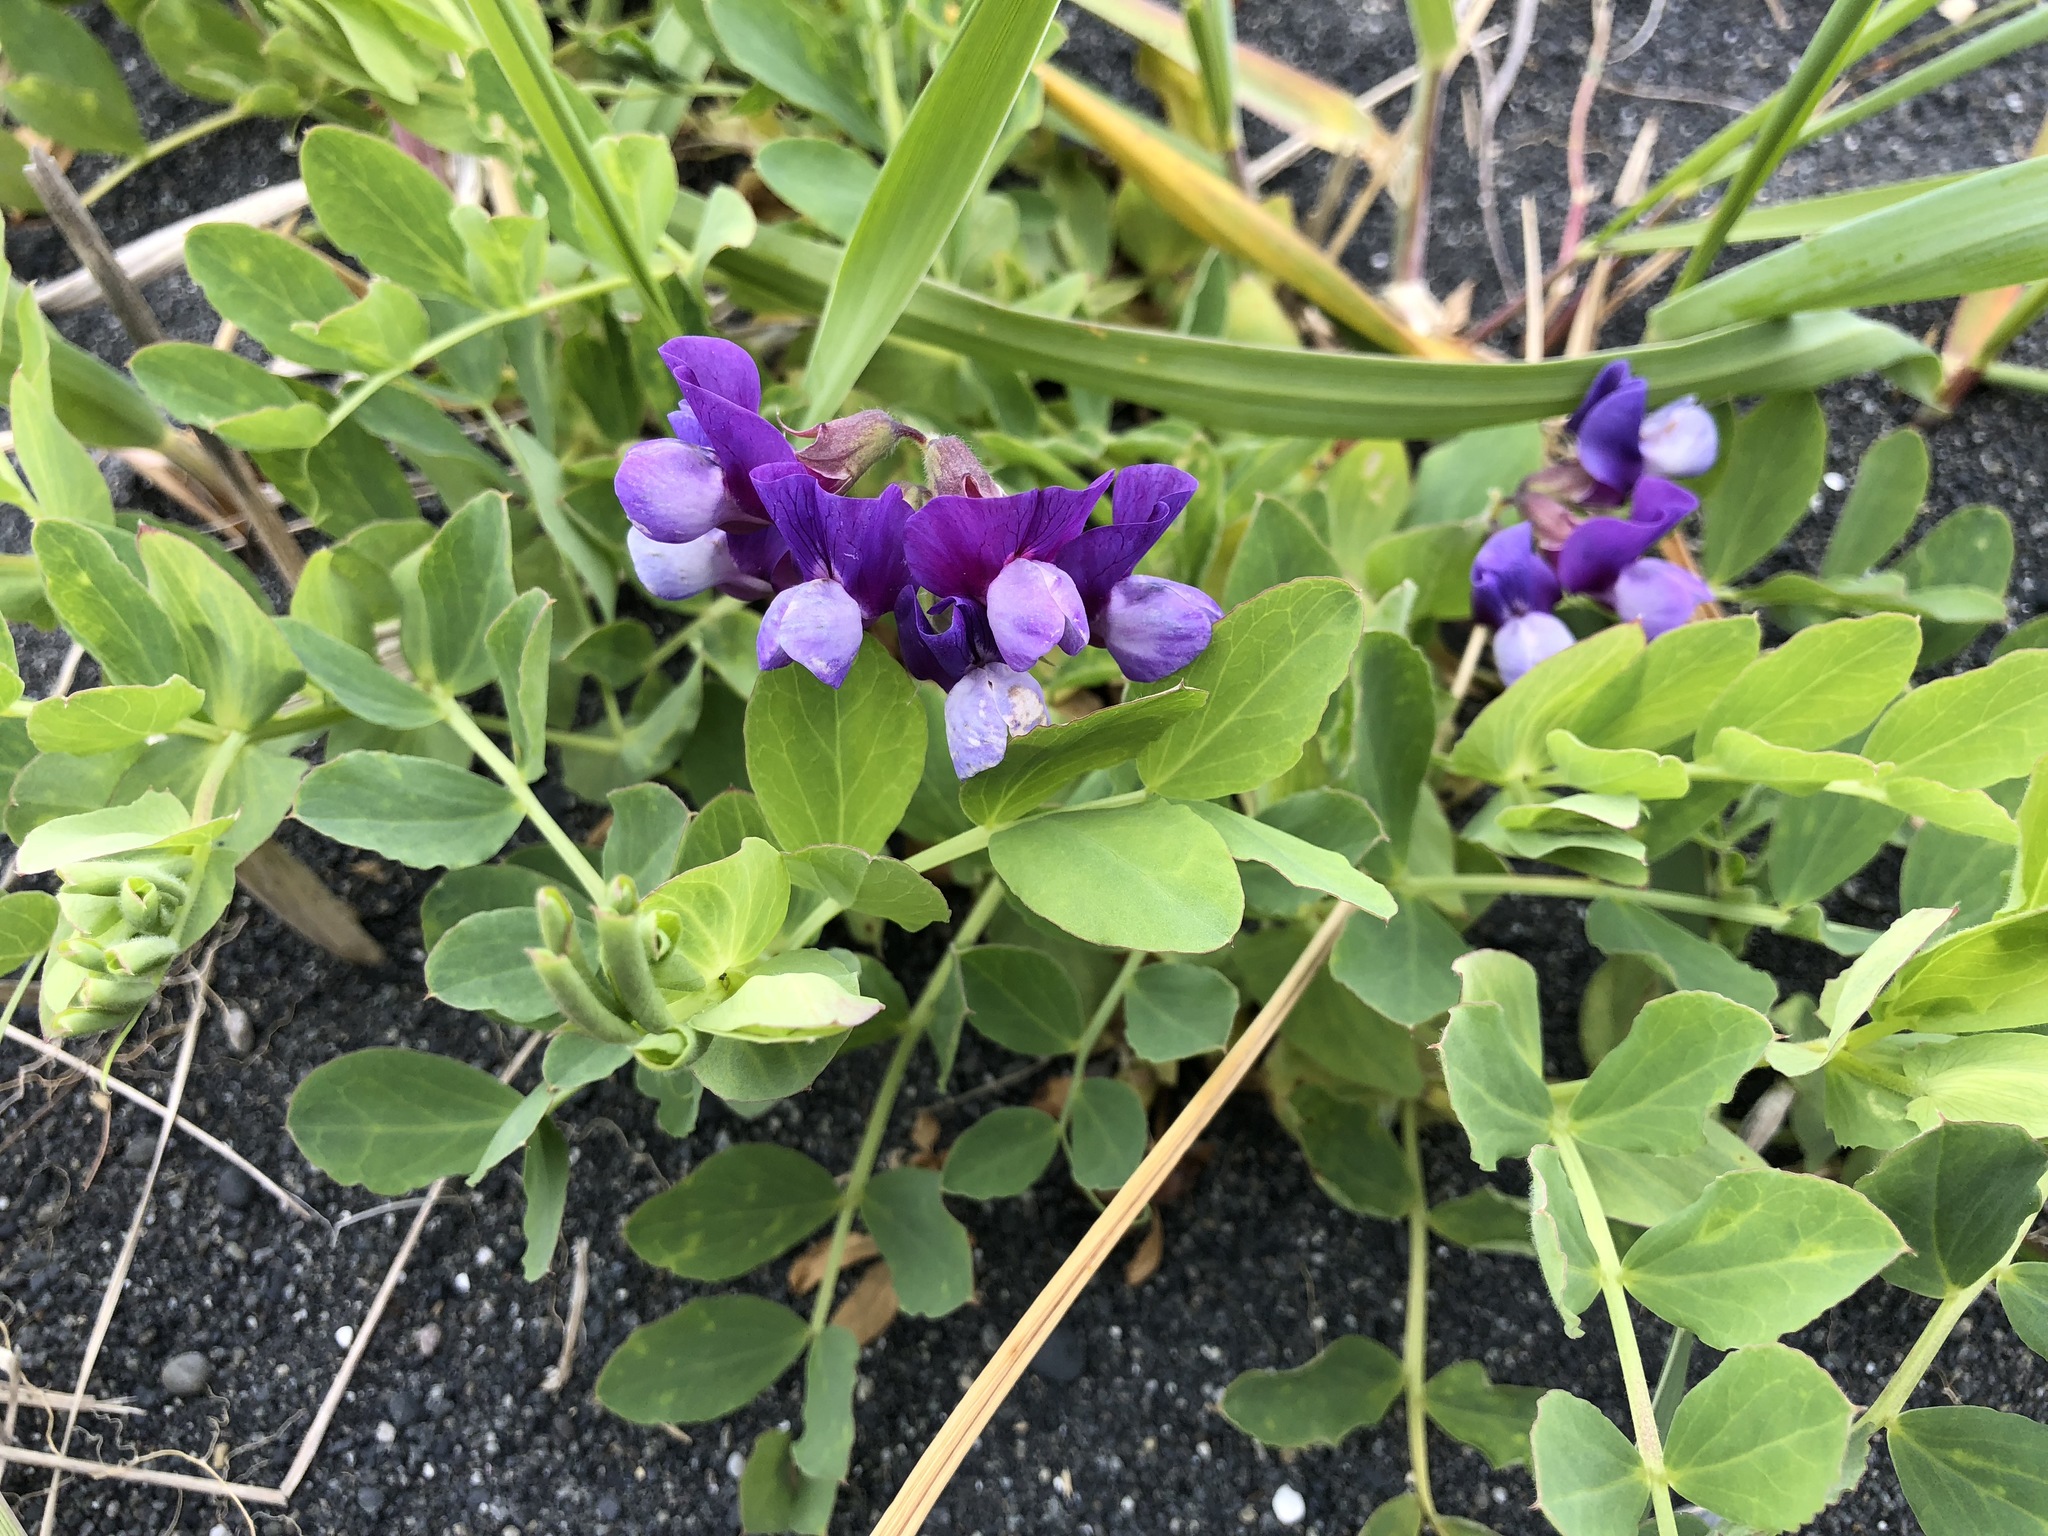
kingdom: Plantae
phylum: Tracheophyta
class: Magnoliopsida
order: Fabales
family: Fabaceae
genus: Lathyrus
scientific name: Lathyrus japonicus
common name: Sea pea
